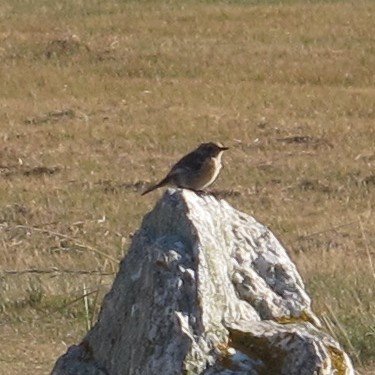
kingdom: Animalia
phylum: Chordata
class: Aves
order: Passeriformes
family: Muscicapidae
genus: Saxicola
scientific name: Saxicola rubicola
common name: European stonechat
